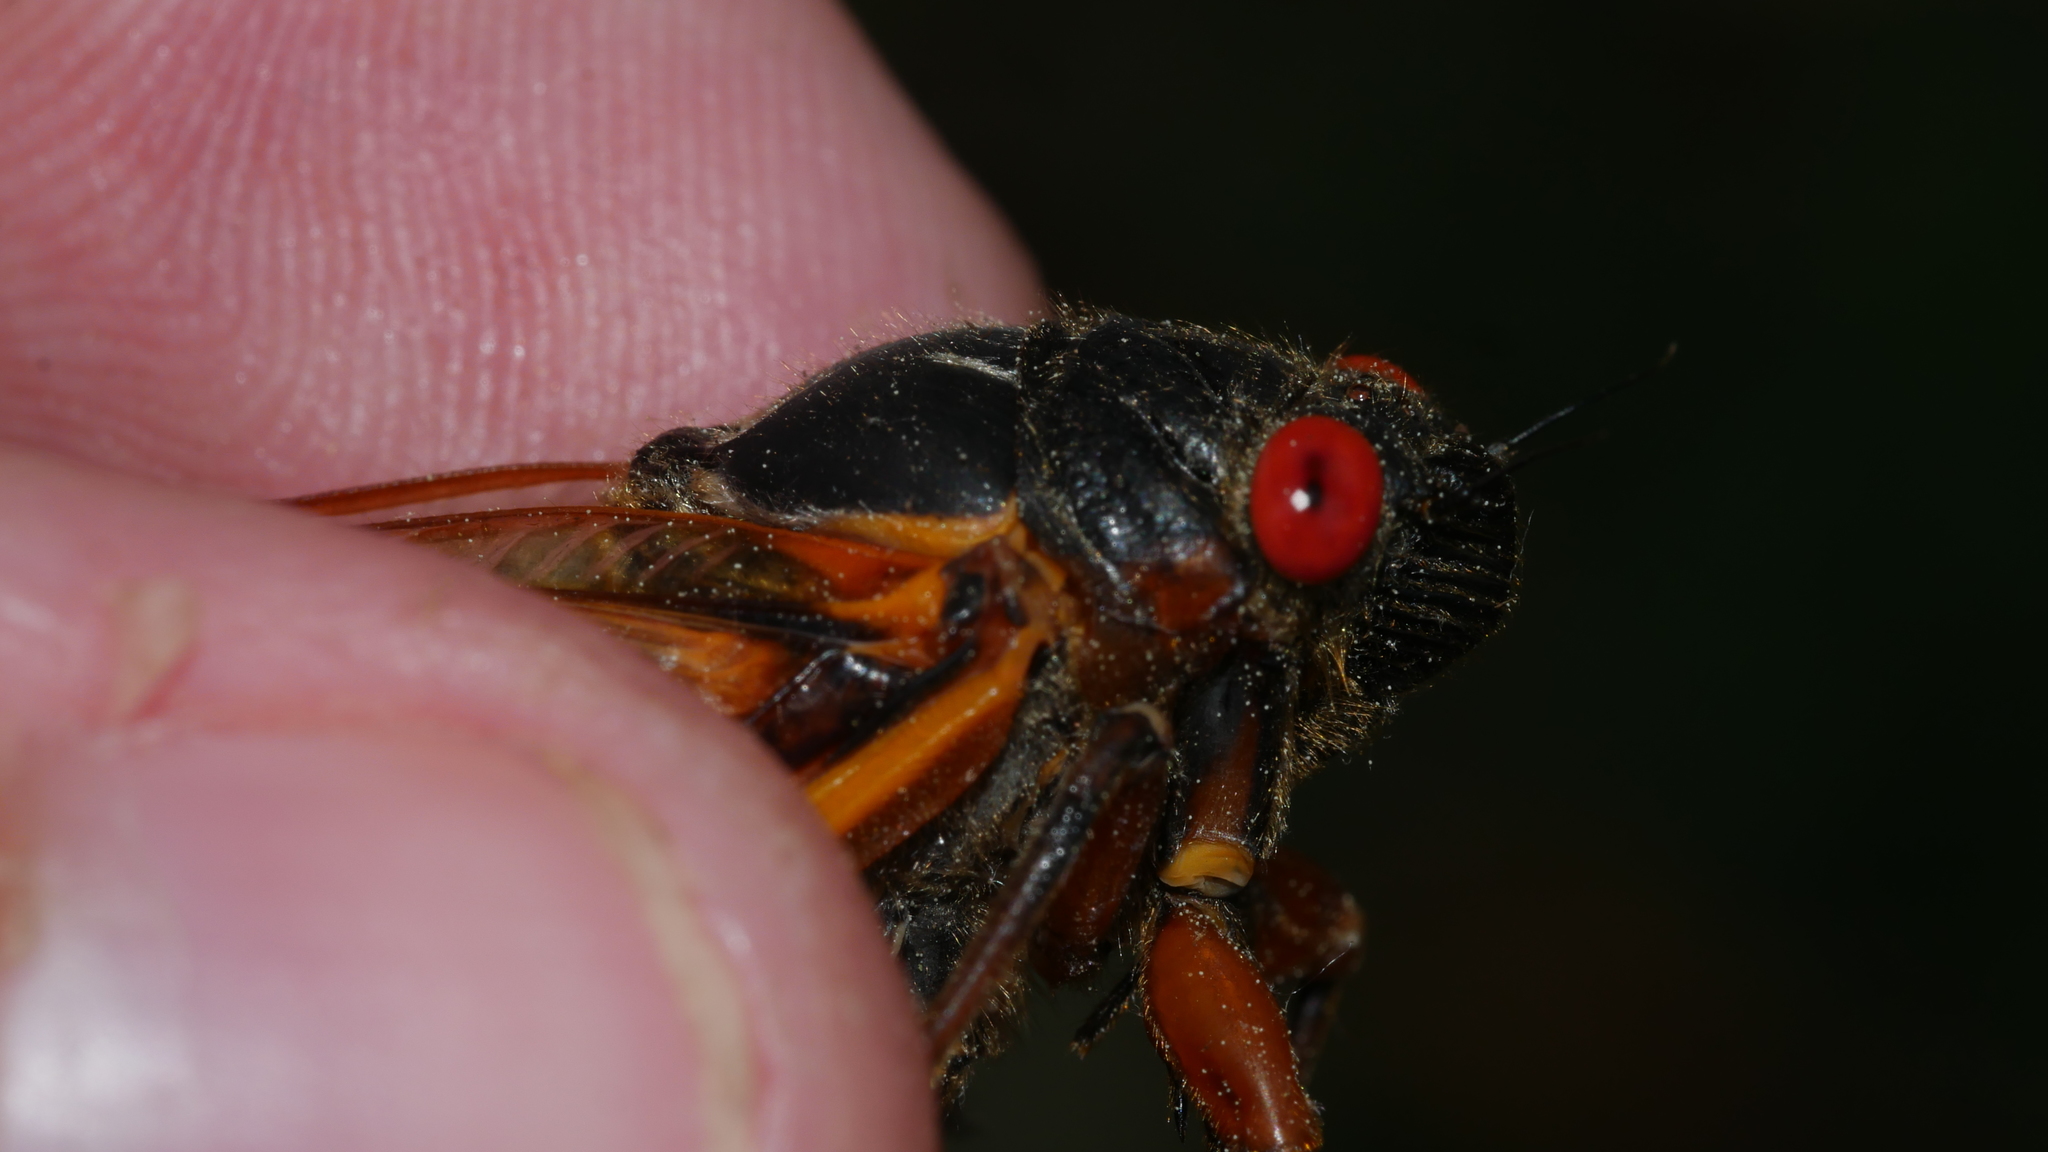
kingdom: Animalia
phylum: Arthropoda
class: Insecta
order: Hemiptera
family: Cicadidae
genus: Magicicada
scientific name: Magicicada septendecim
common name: Periodical cicada
